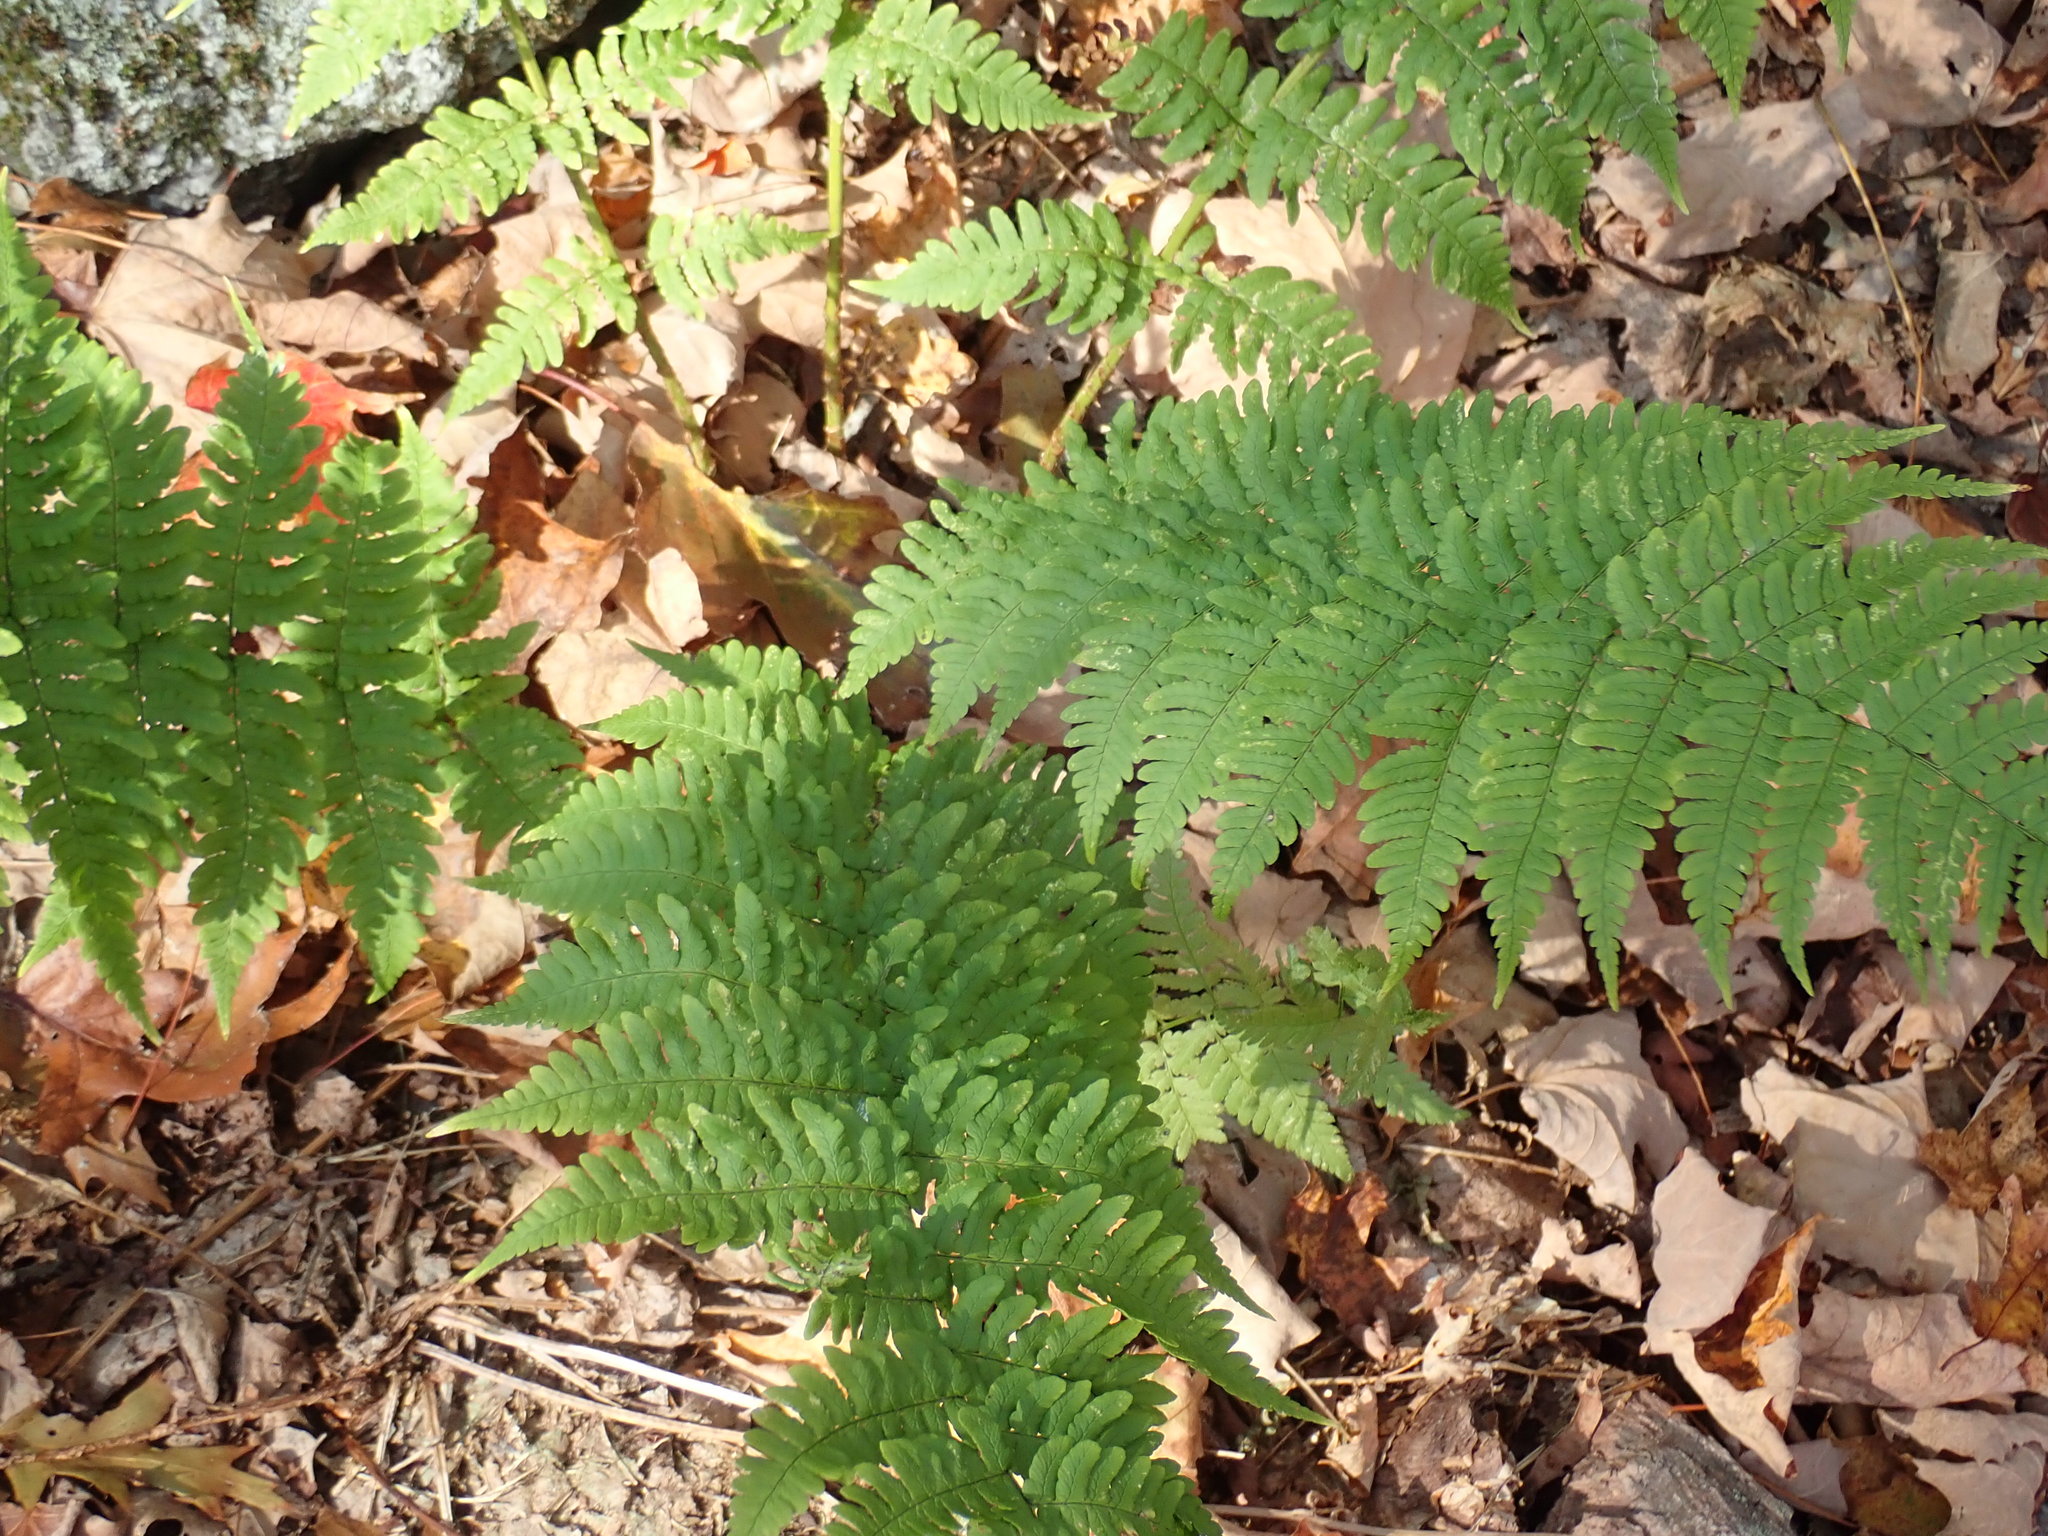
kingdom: Plantae
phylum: Tracheophyta
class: Polypodiopsida
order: Polypodiales
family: Dryopteridaceae
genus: Dryopteris
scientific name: Dryopteris marginalis
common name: Marginal wood fern
